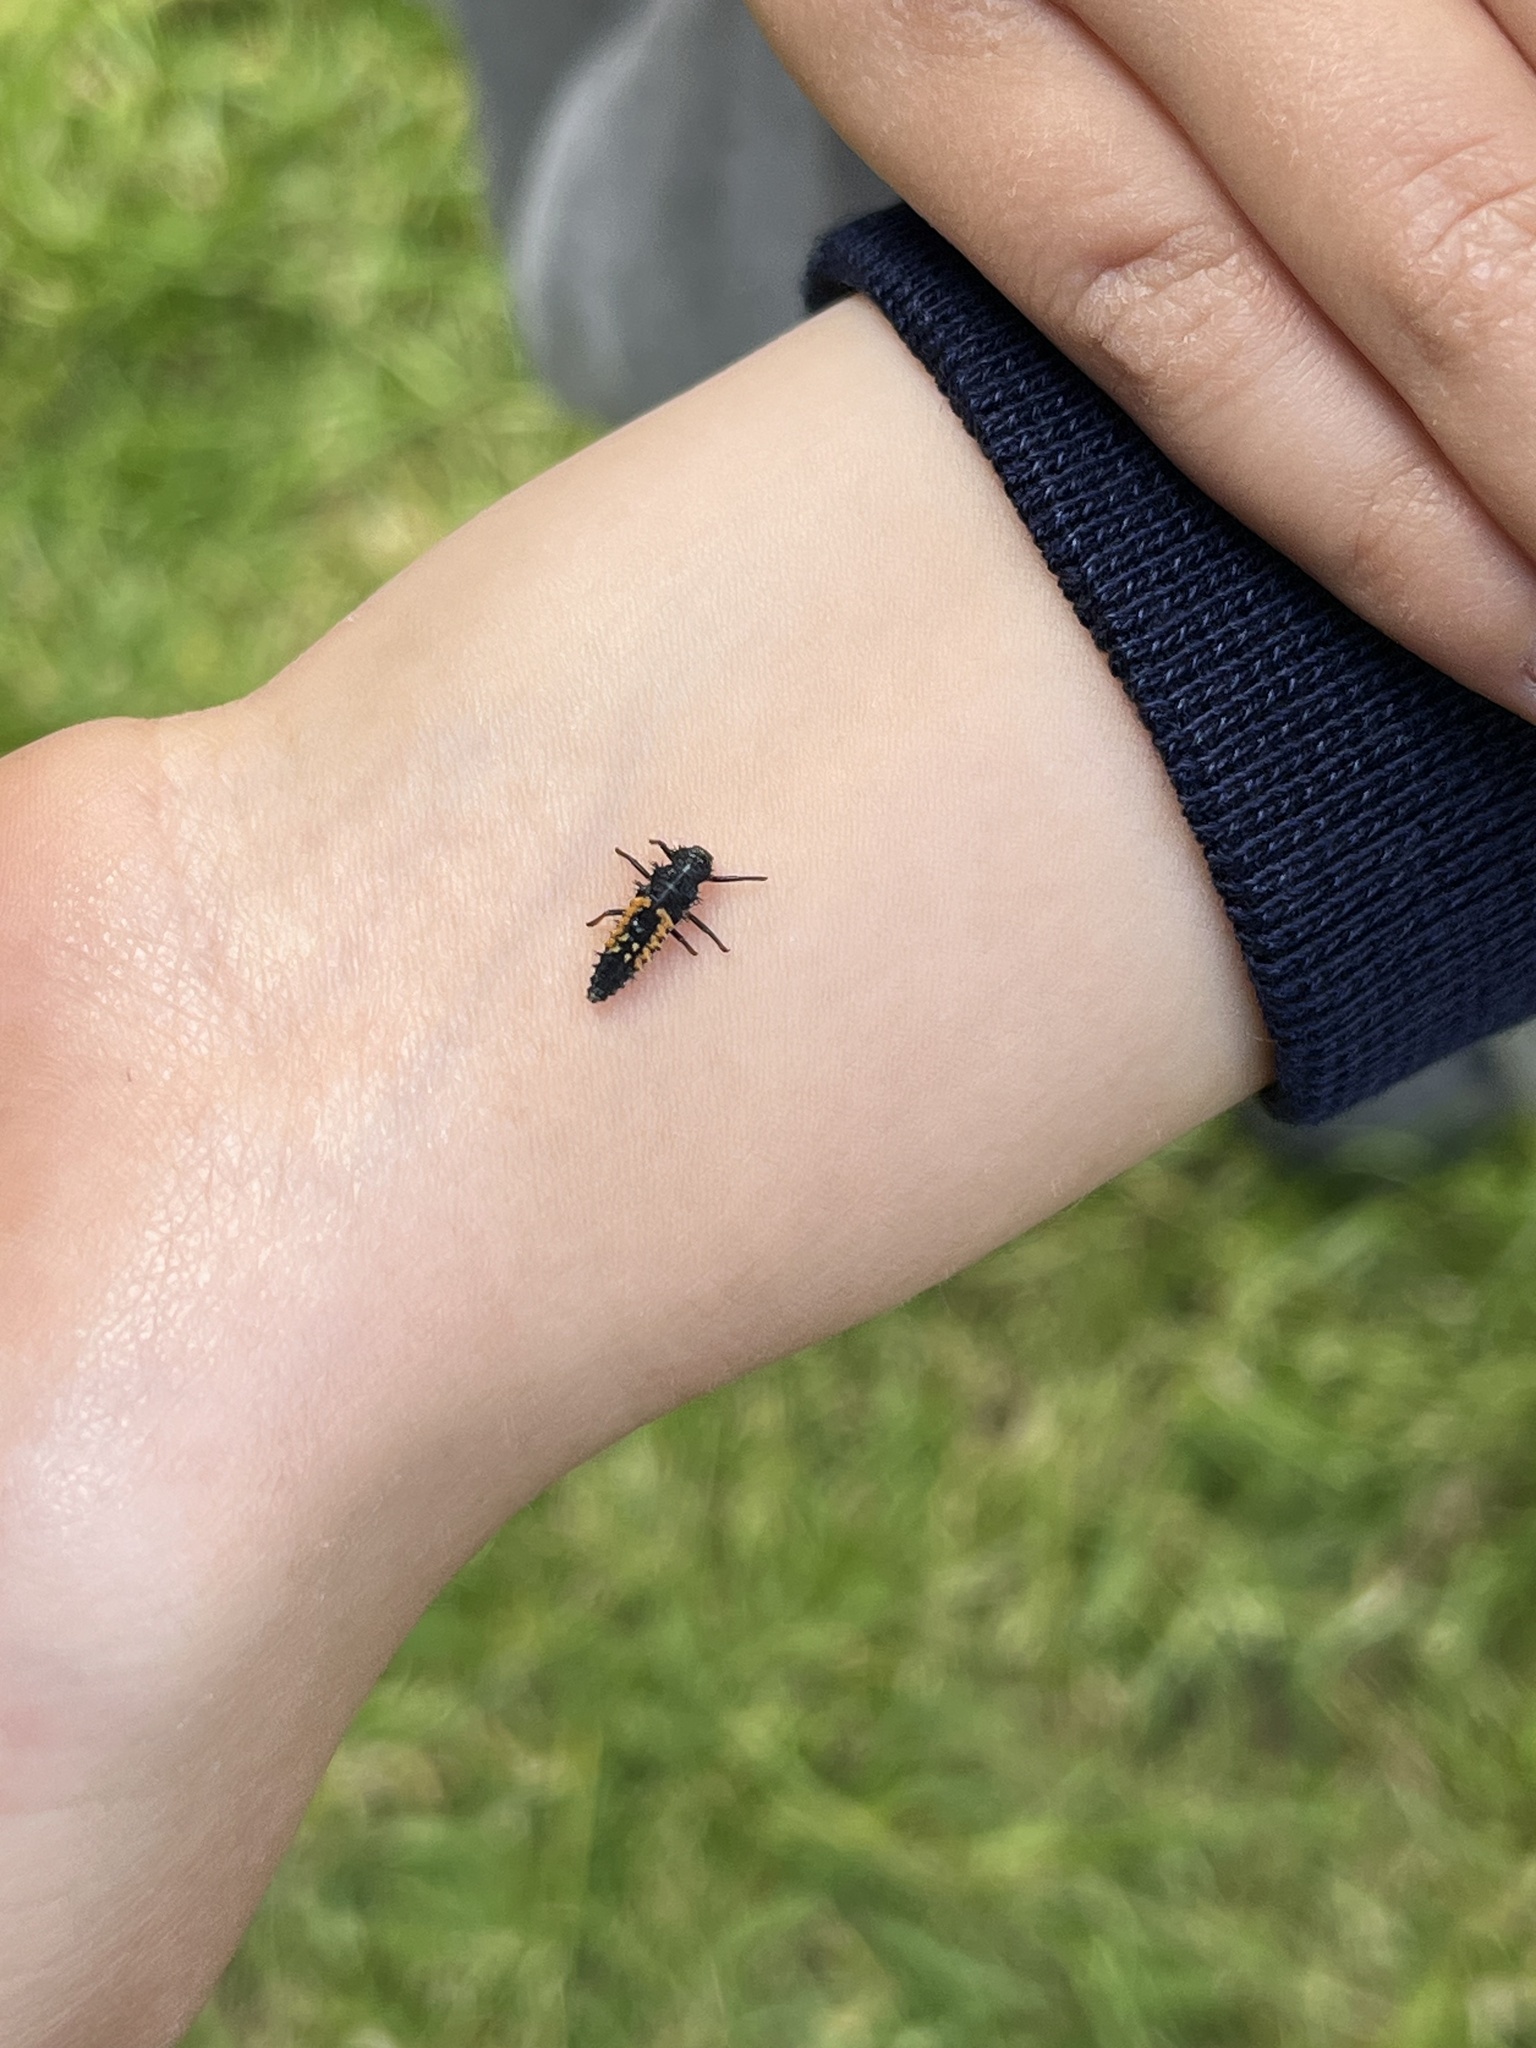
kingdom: Animalia
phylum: Arthropoda
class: Insecta
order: Coleoptera
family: Coccinellidae
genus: Harmonia
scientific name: Harmonia axyridis
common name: Harlequin ladybird
